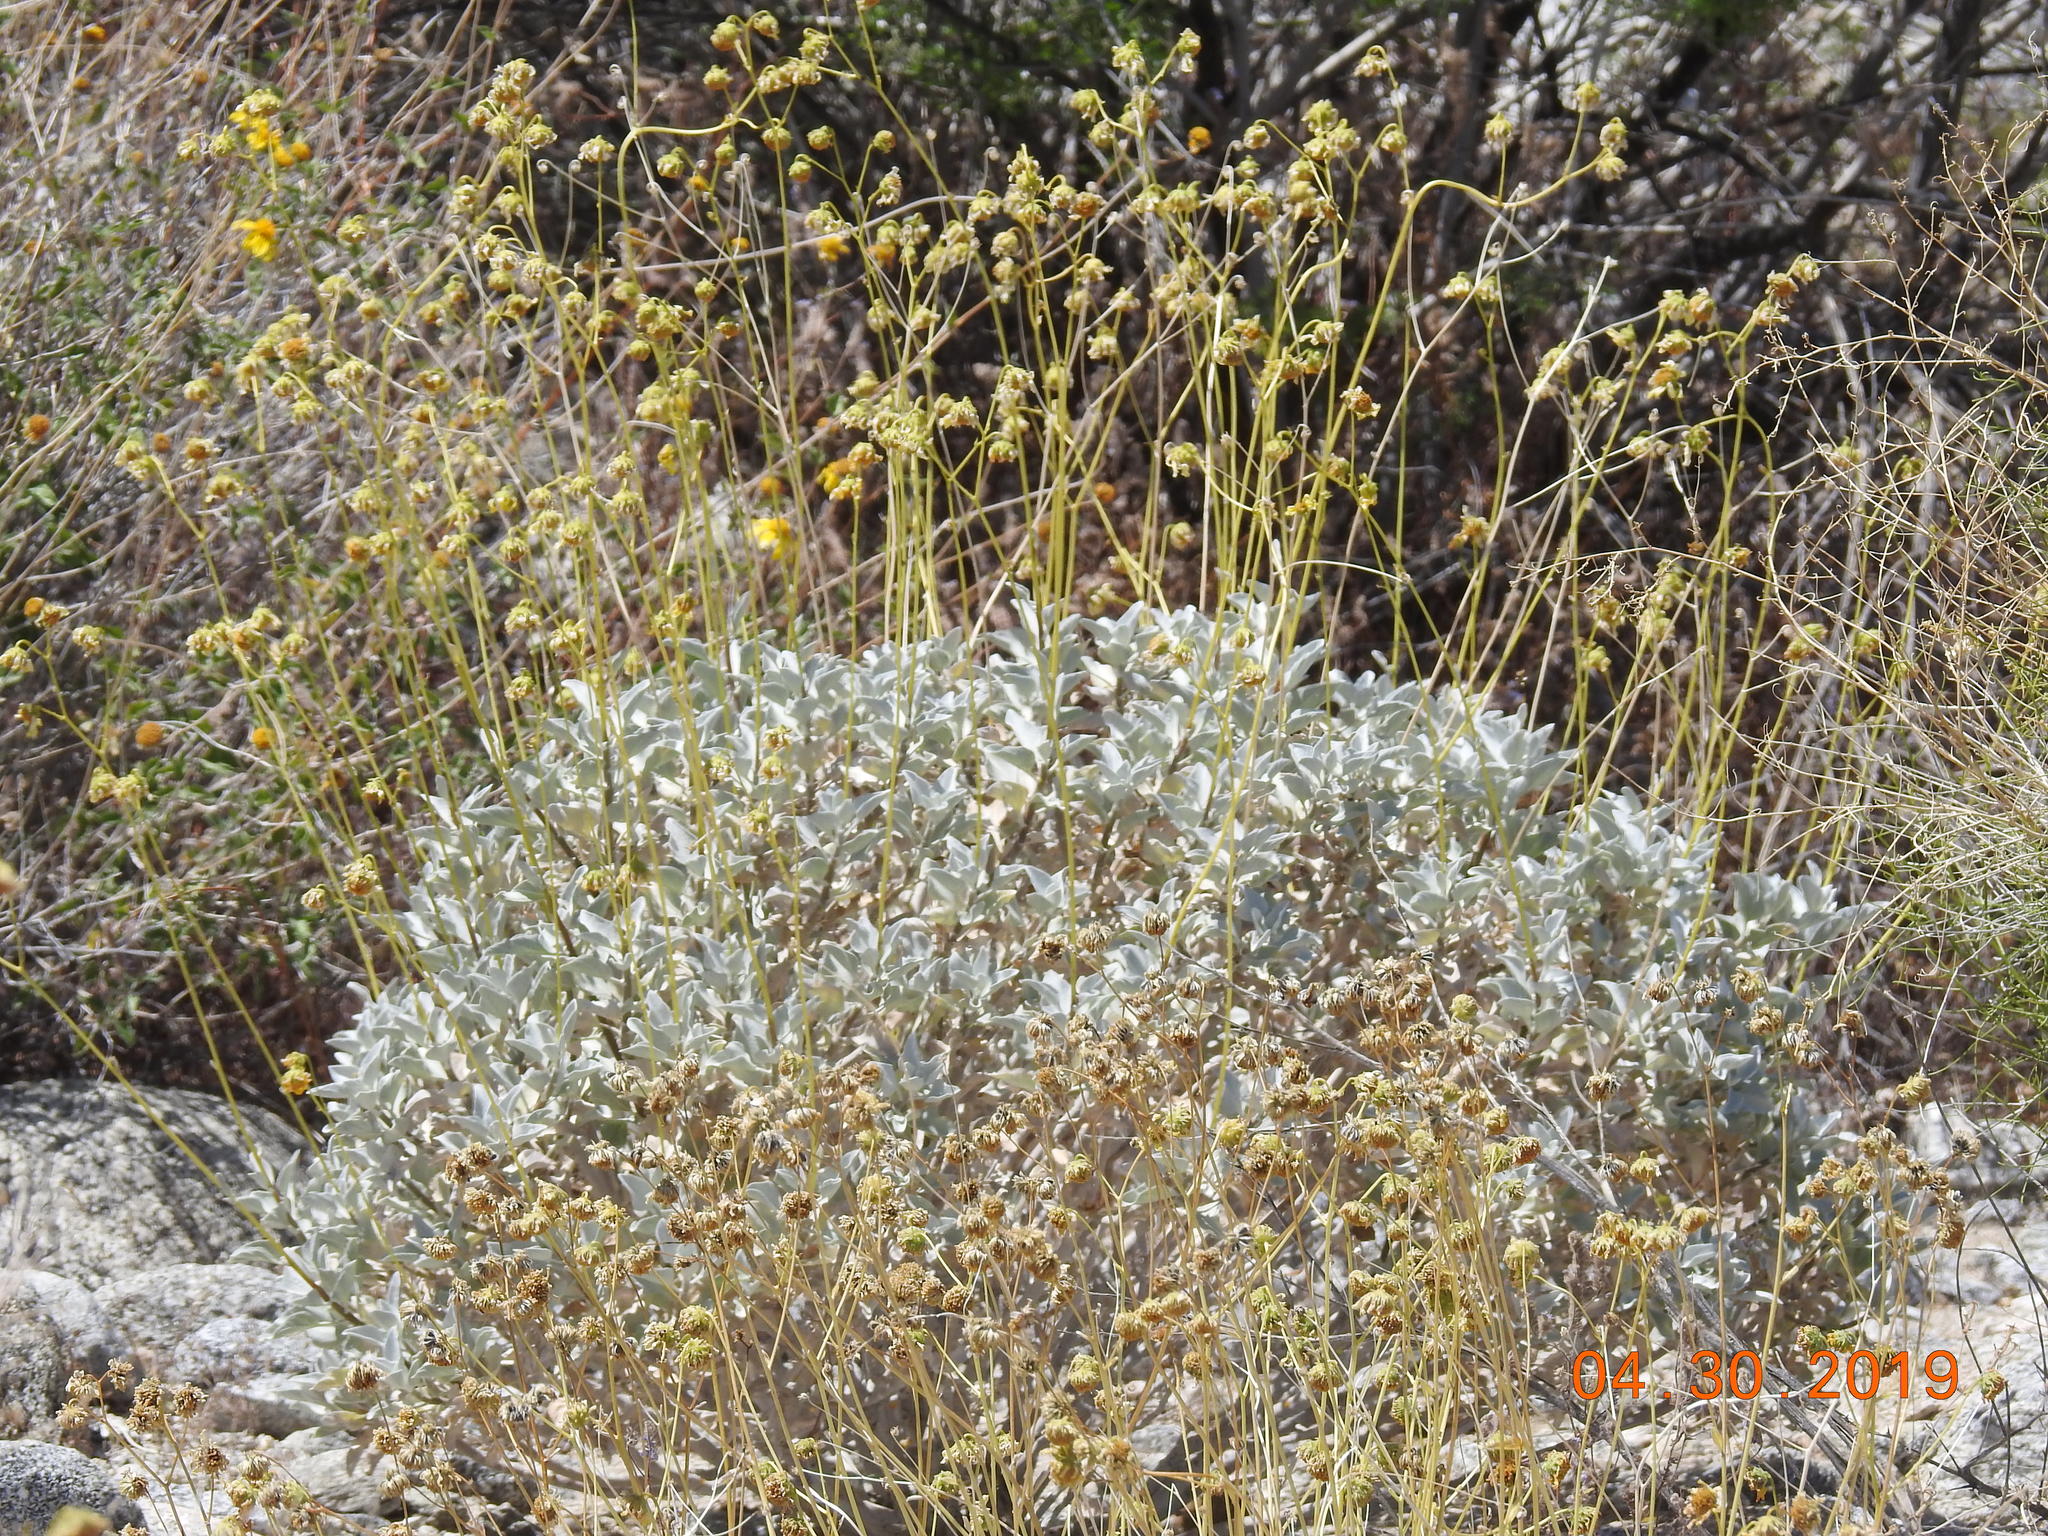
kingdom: Plantae
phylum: Tracheophyta
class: Magnoliopsida
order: Asterales
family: Asteraceae
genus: Encelia
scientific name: Encelia farinosa
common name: Brittlebush
